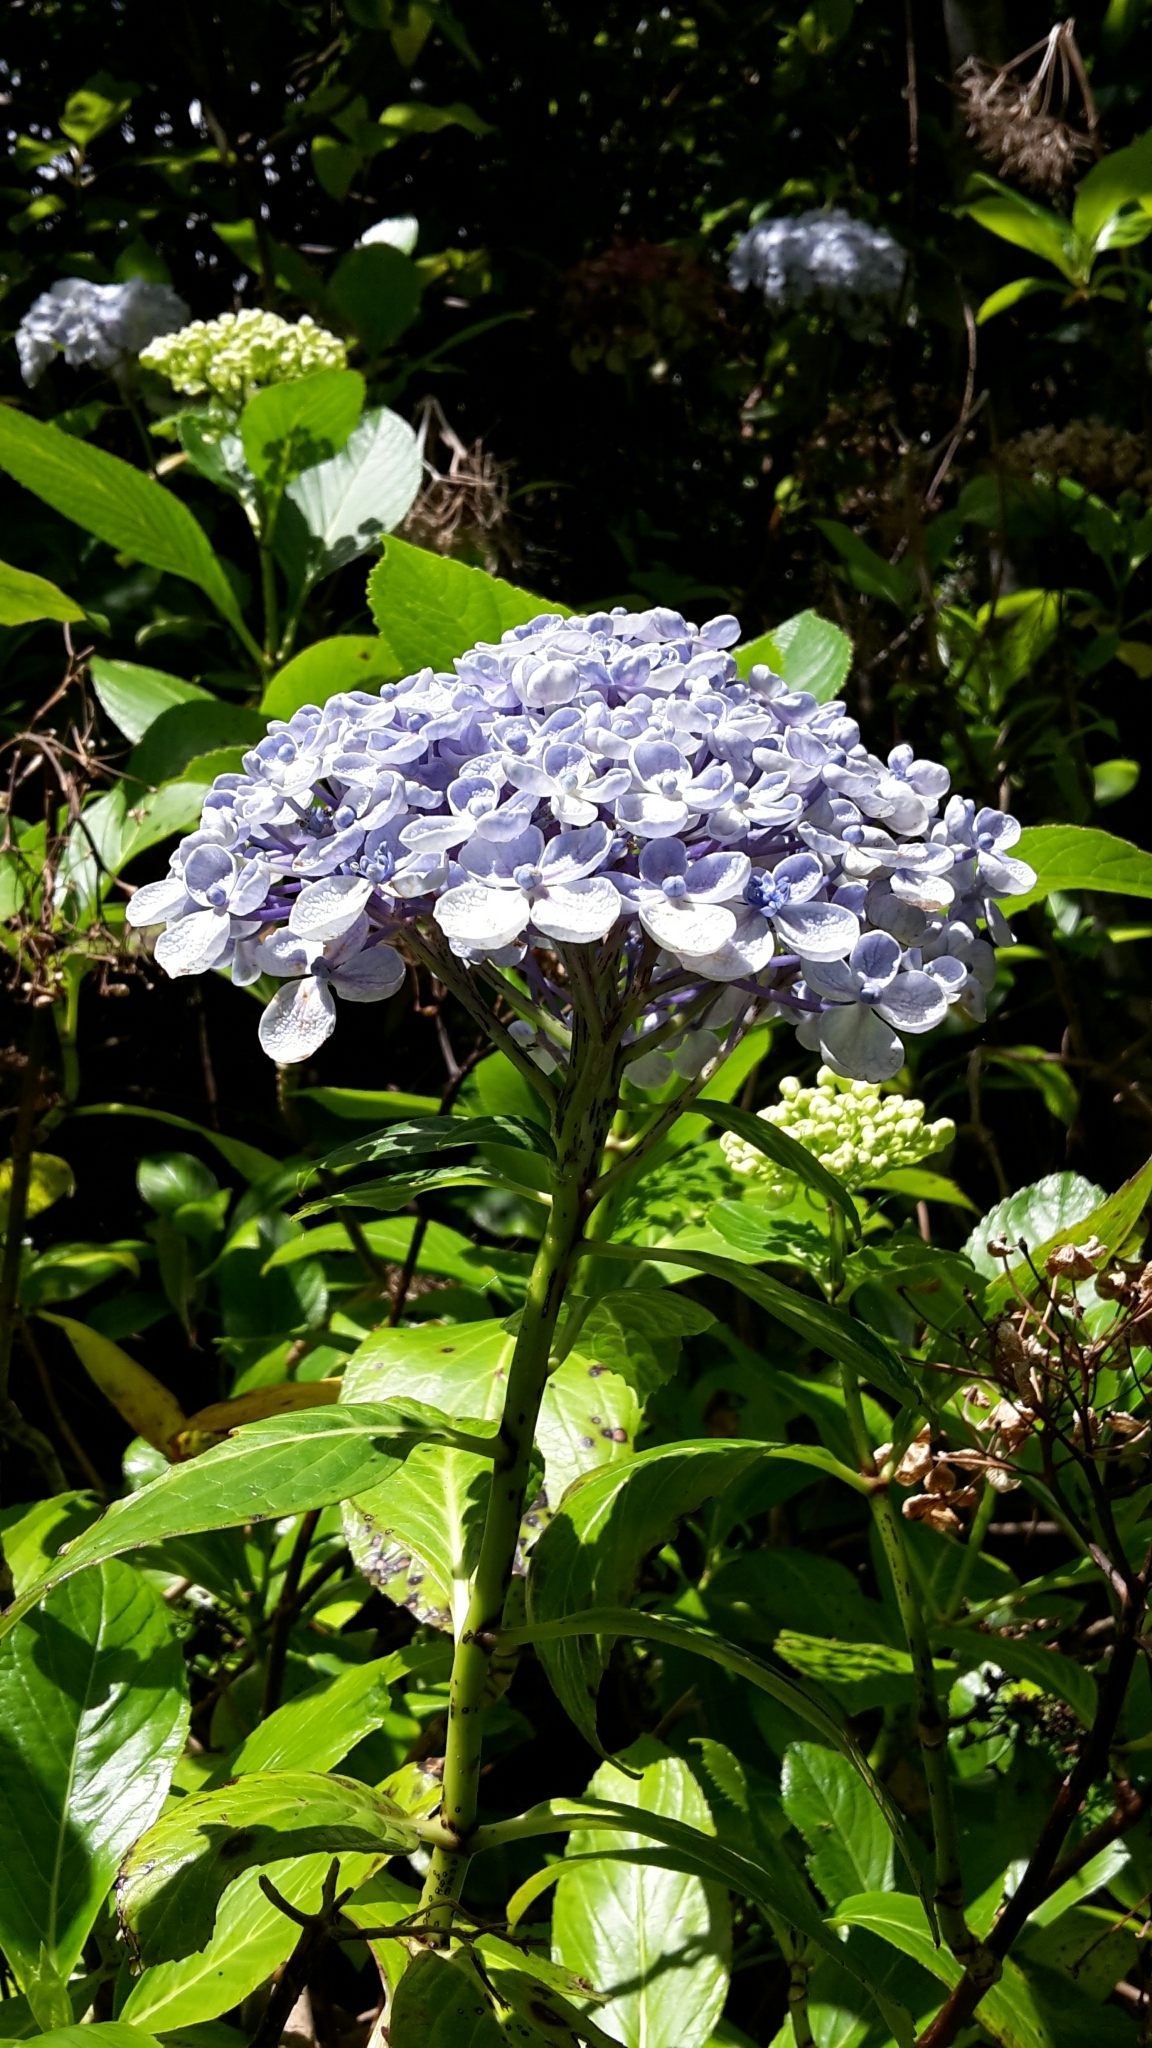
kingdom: Plantae
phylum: Tracheophyta
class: Magnoliopsida
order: Cornales
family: Hydrangeaceae
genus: Hydrangea
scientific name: Hydrangea macrophylla
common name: Hydrangea
